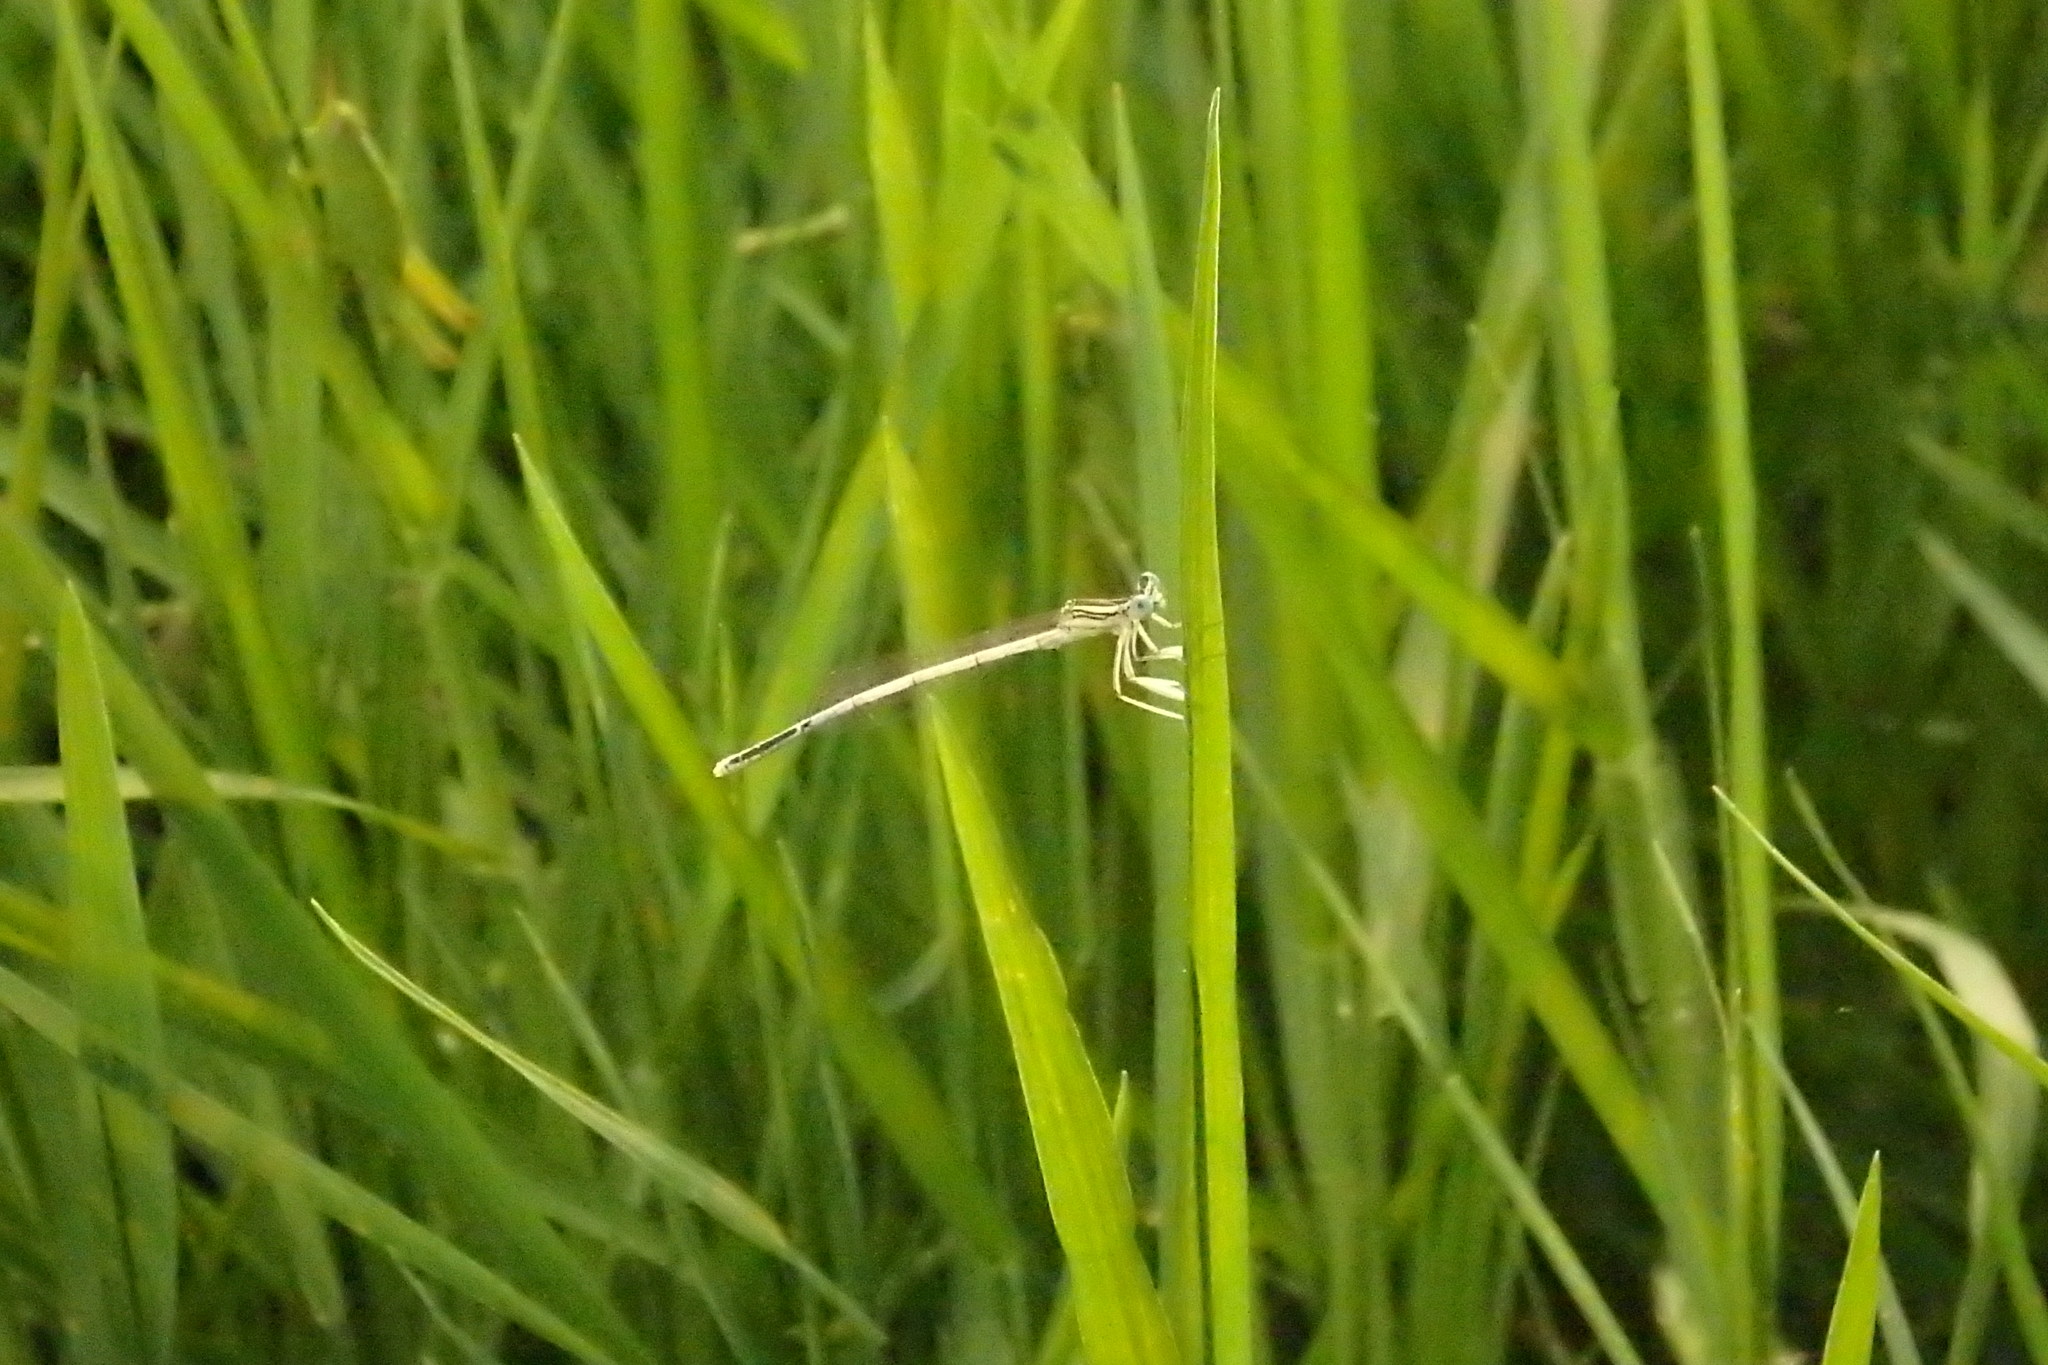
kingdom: Animalia
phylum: Arthropoda
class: Insecta
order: Odonata
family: Platycnemididae
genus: Platycnemis
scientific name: Platycnemis latipes
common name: White featherleg
